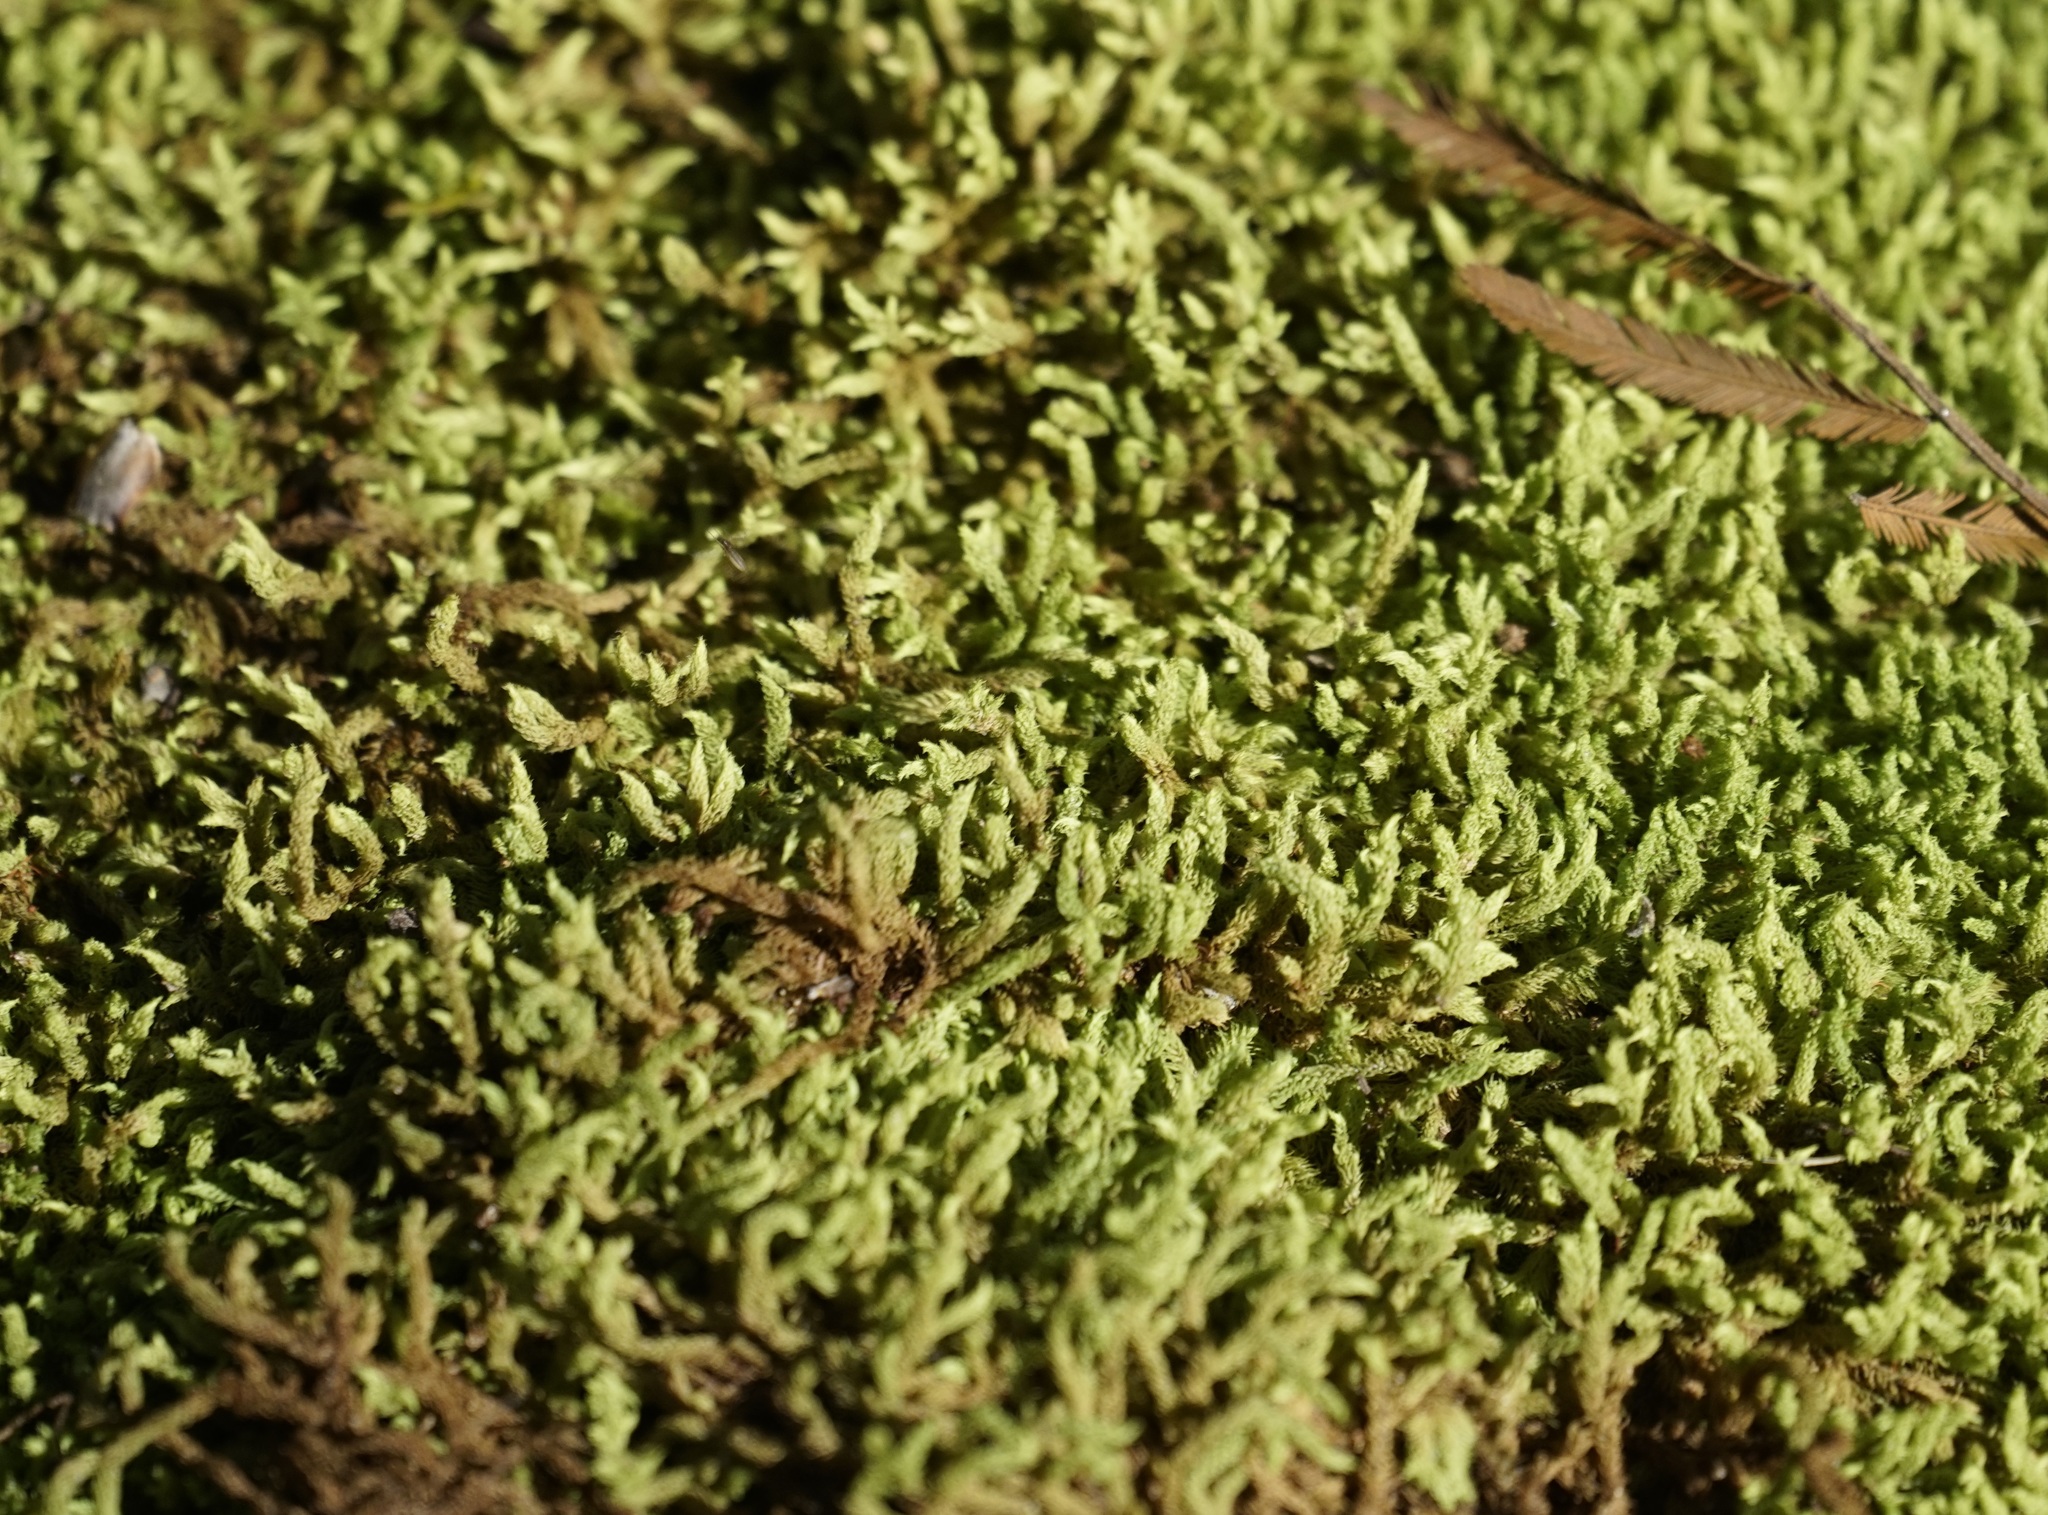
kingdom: Plantae
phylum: Bryophyta
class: Bryopsida
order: Dicranales
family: Dicranaceae
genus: Sclerodontium
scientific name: Sclerodontium pallidum
